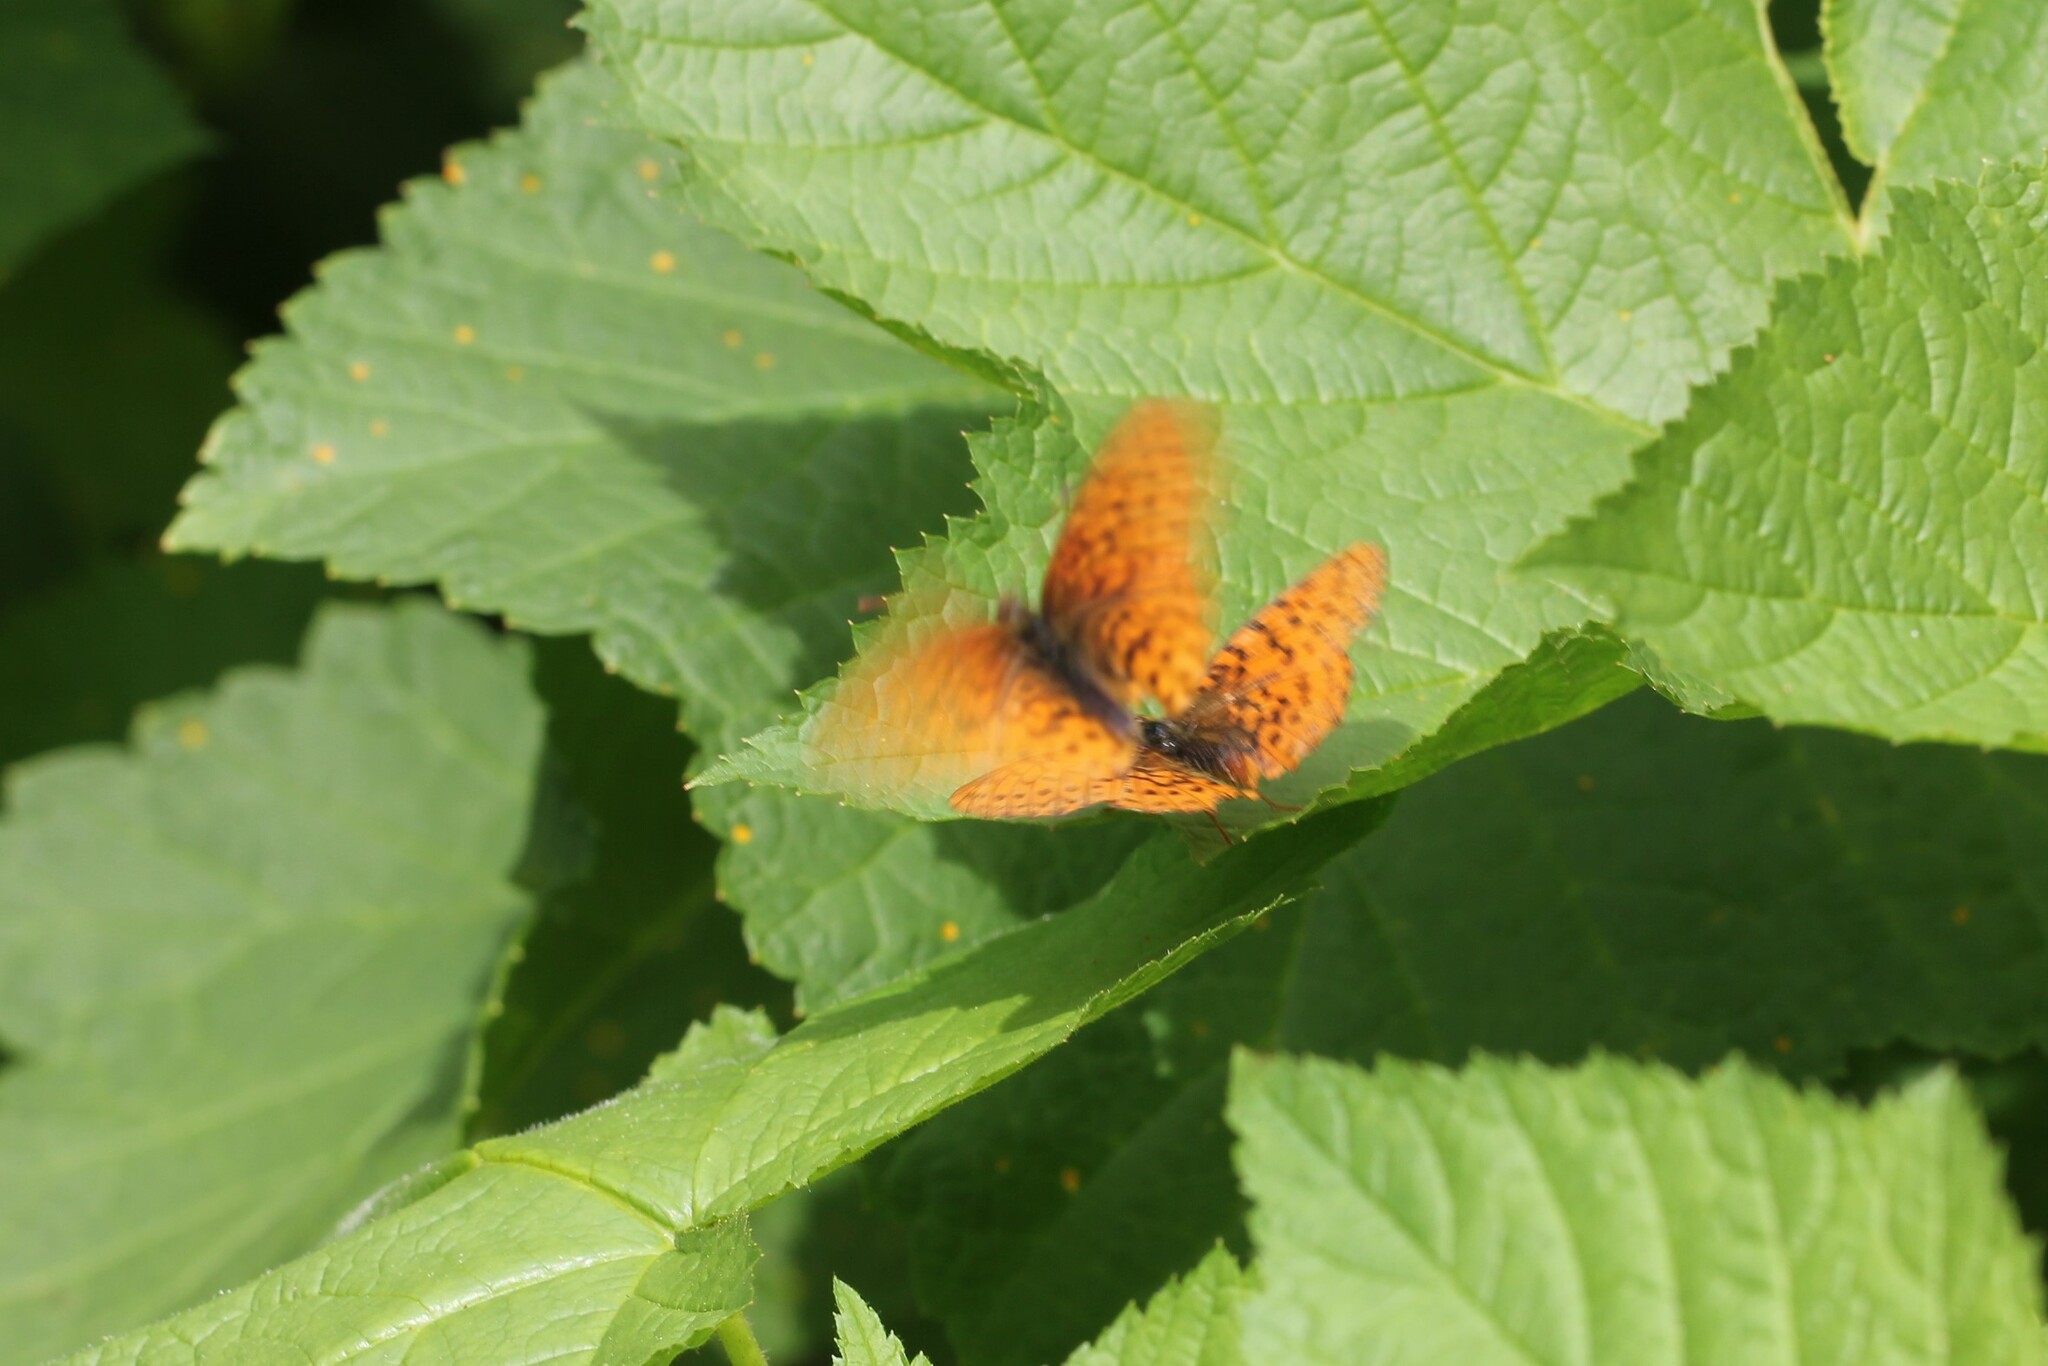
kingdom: Animalia
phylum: Arthropoda
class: Insecta
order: Lepidoptera
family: Nymphalidae
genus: Boloria
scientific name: Boloria epithore
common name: Pacific fritillary
